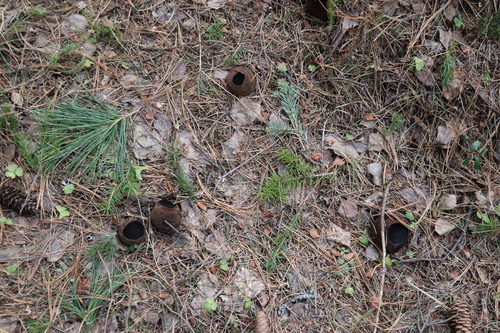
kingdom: Fungi
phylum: Ascomycota
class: Pezizomycetes
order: Pezizales
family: Sarcosomataceae
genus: Sarcosoma
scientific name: Sarcosoma globosum
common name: Charred-pancake cup
